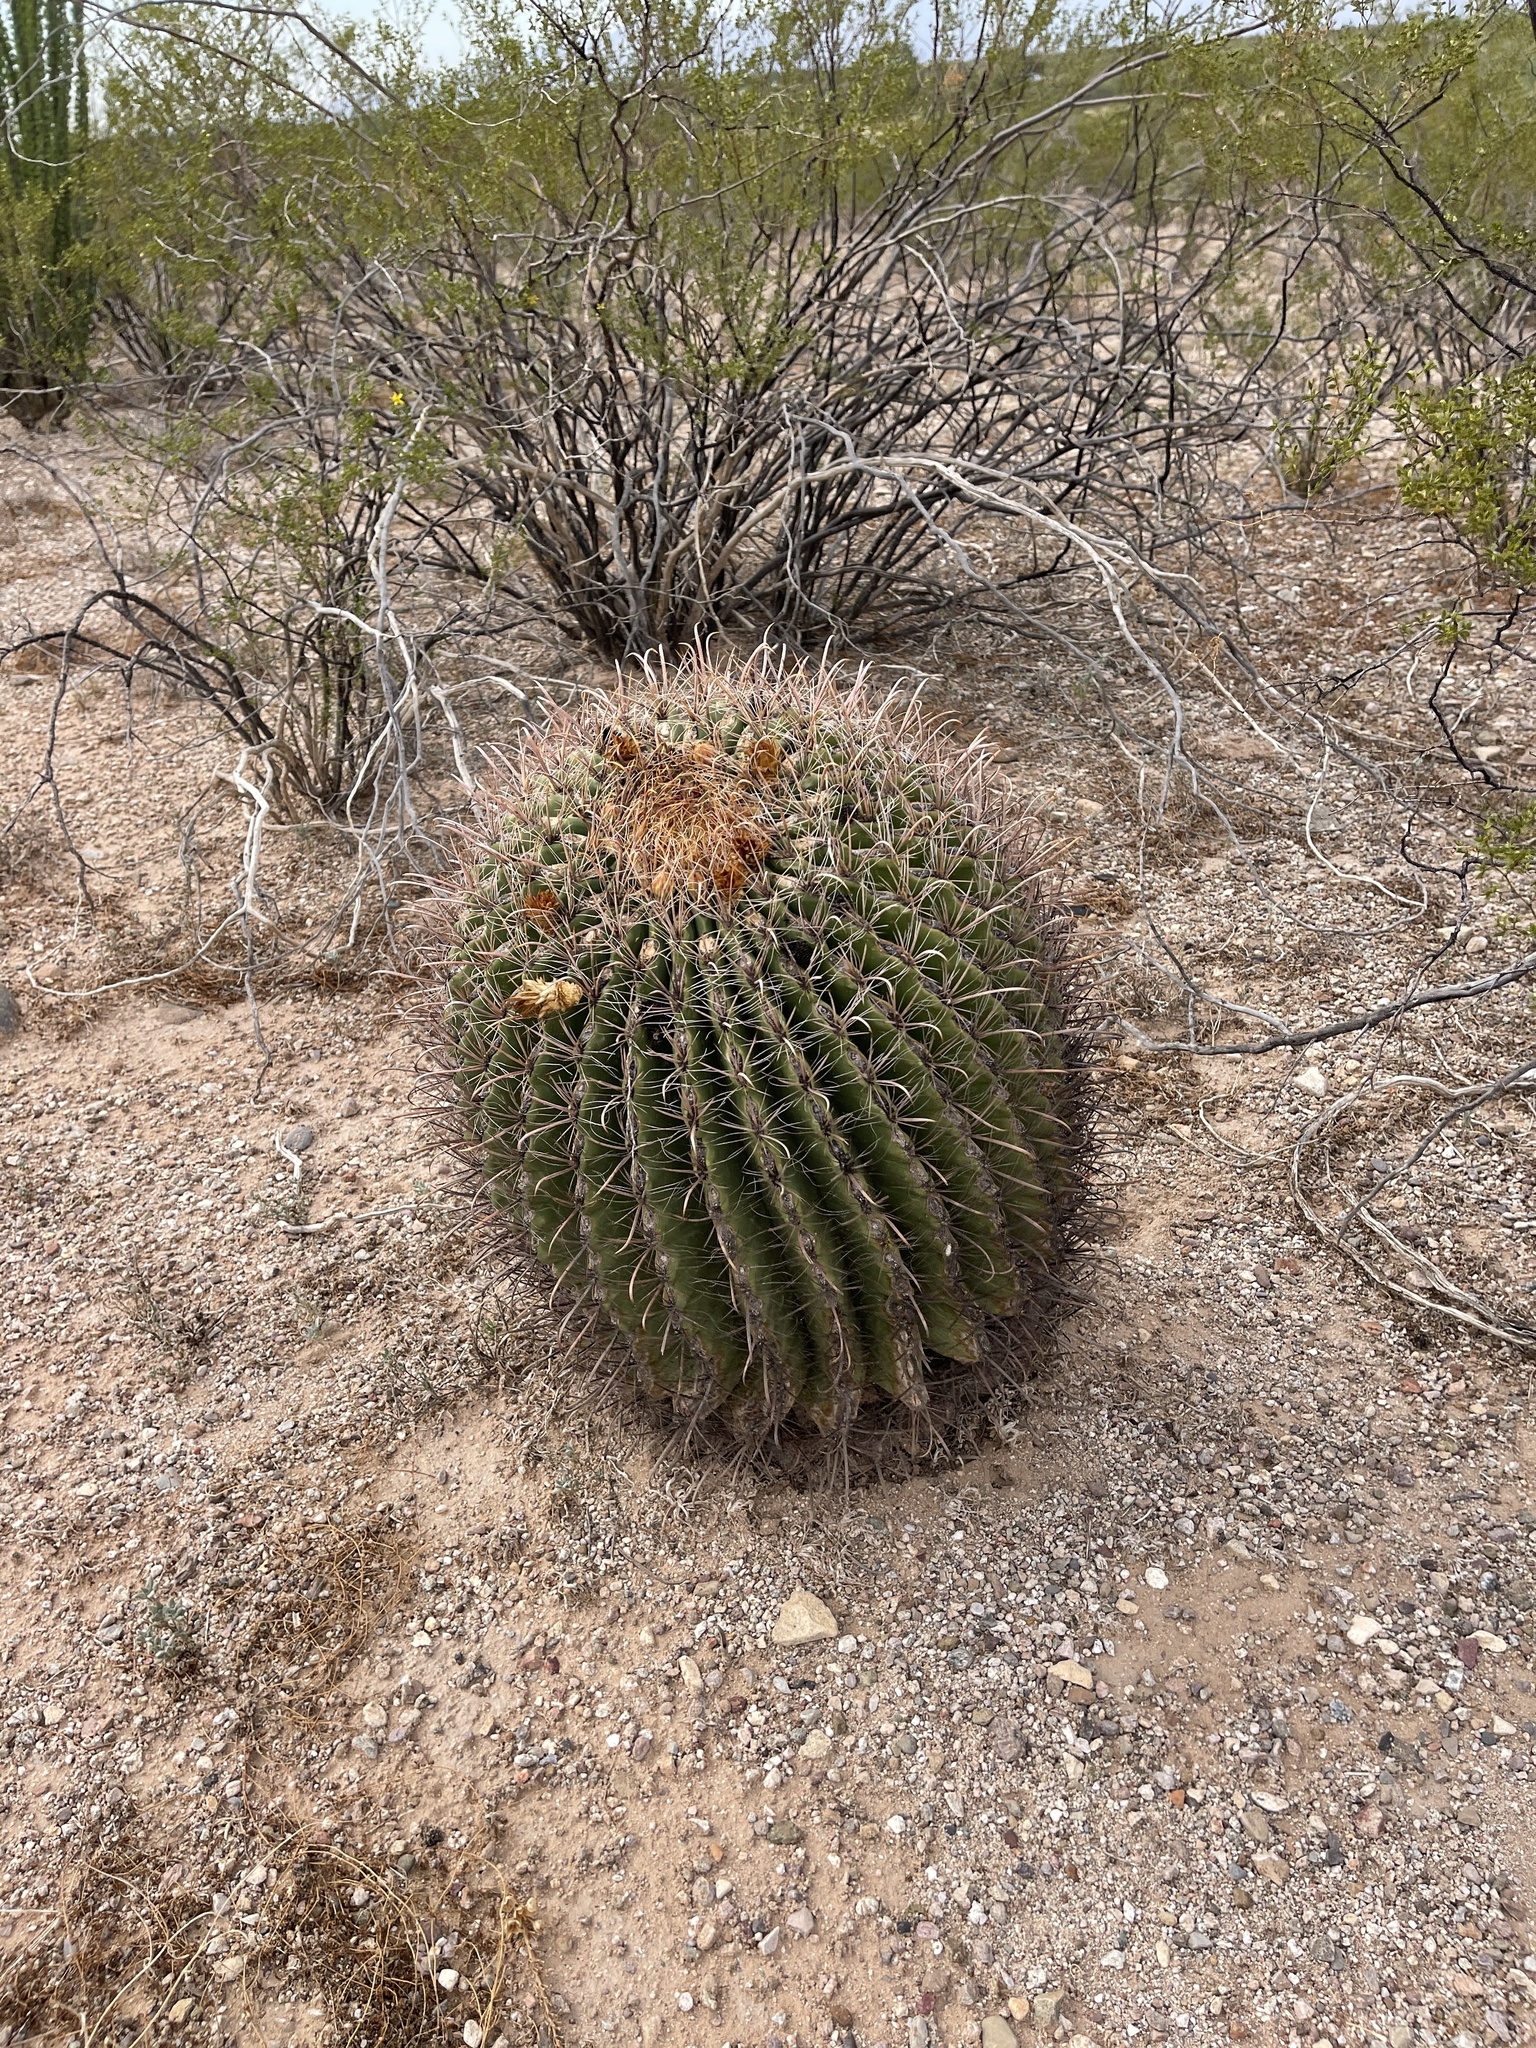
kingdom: Plantae
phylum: Tracheophyta
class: Magnoliopsida
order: Caryophyllales
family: Cactaceae
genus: Ferocactus
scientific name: Ferocactus wislizeni
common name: Candy barrel cactus
